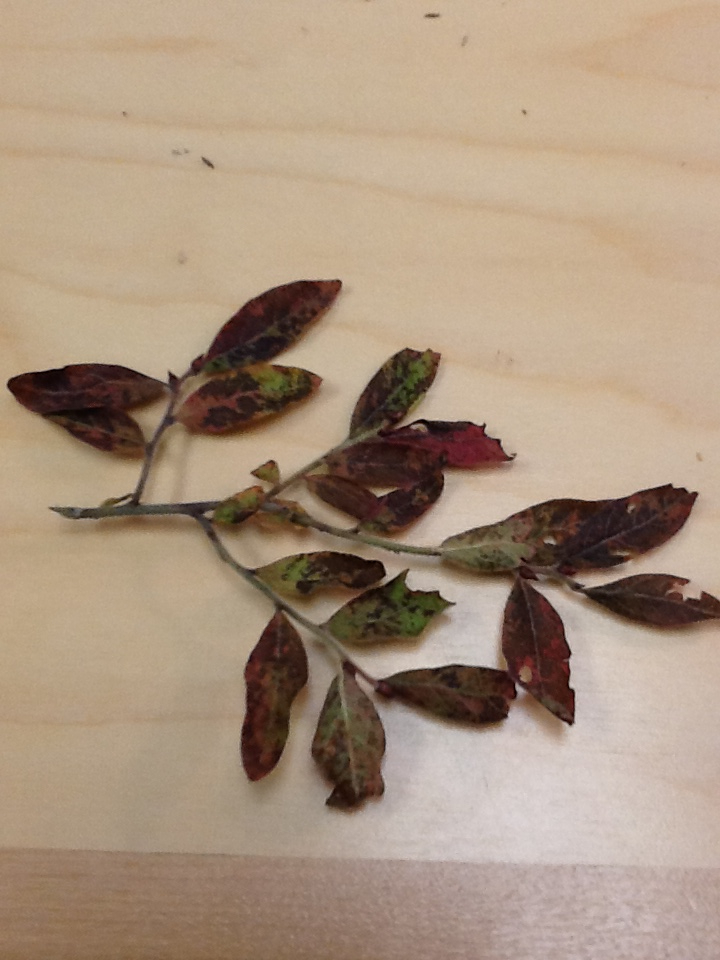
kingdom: Plantae
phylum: Tracheophyta
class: Magnoliopsida
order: Ericales
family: Ericaceae
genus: Vaccinium
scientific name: Vaccinium myrtilloides
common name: Canada blueberry
